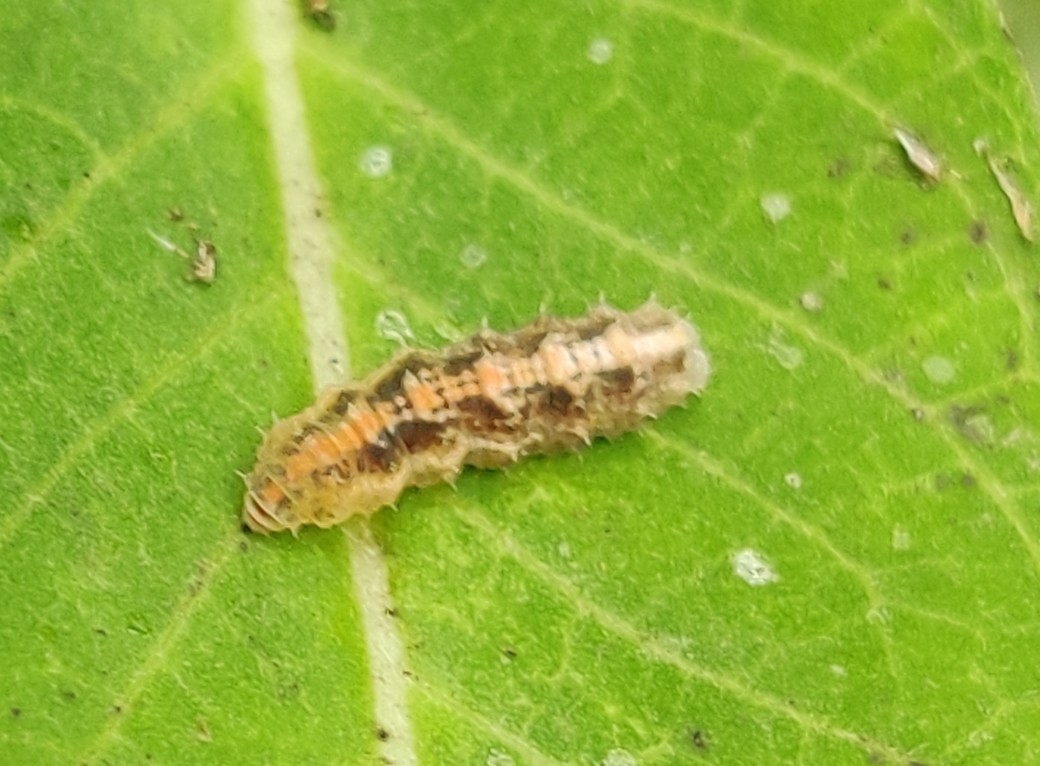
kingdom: Animalia
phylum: Arthropoda
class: Insecta
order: Diptera
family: Syrphidae
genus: Dioprosopa
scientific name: Dioprosopa clavatus
